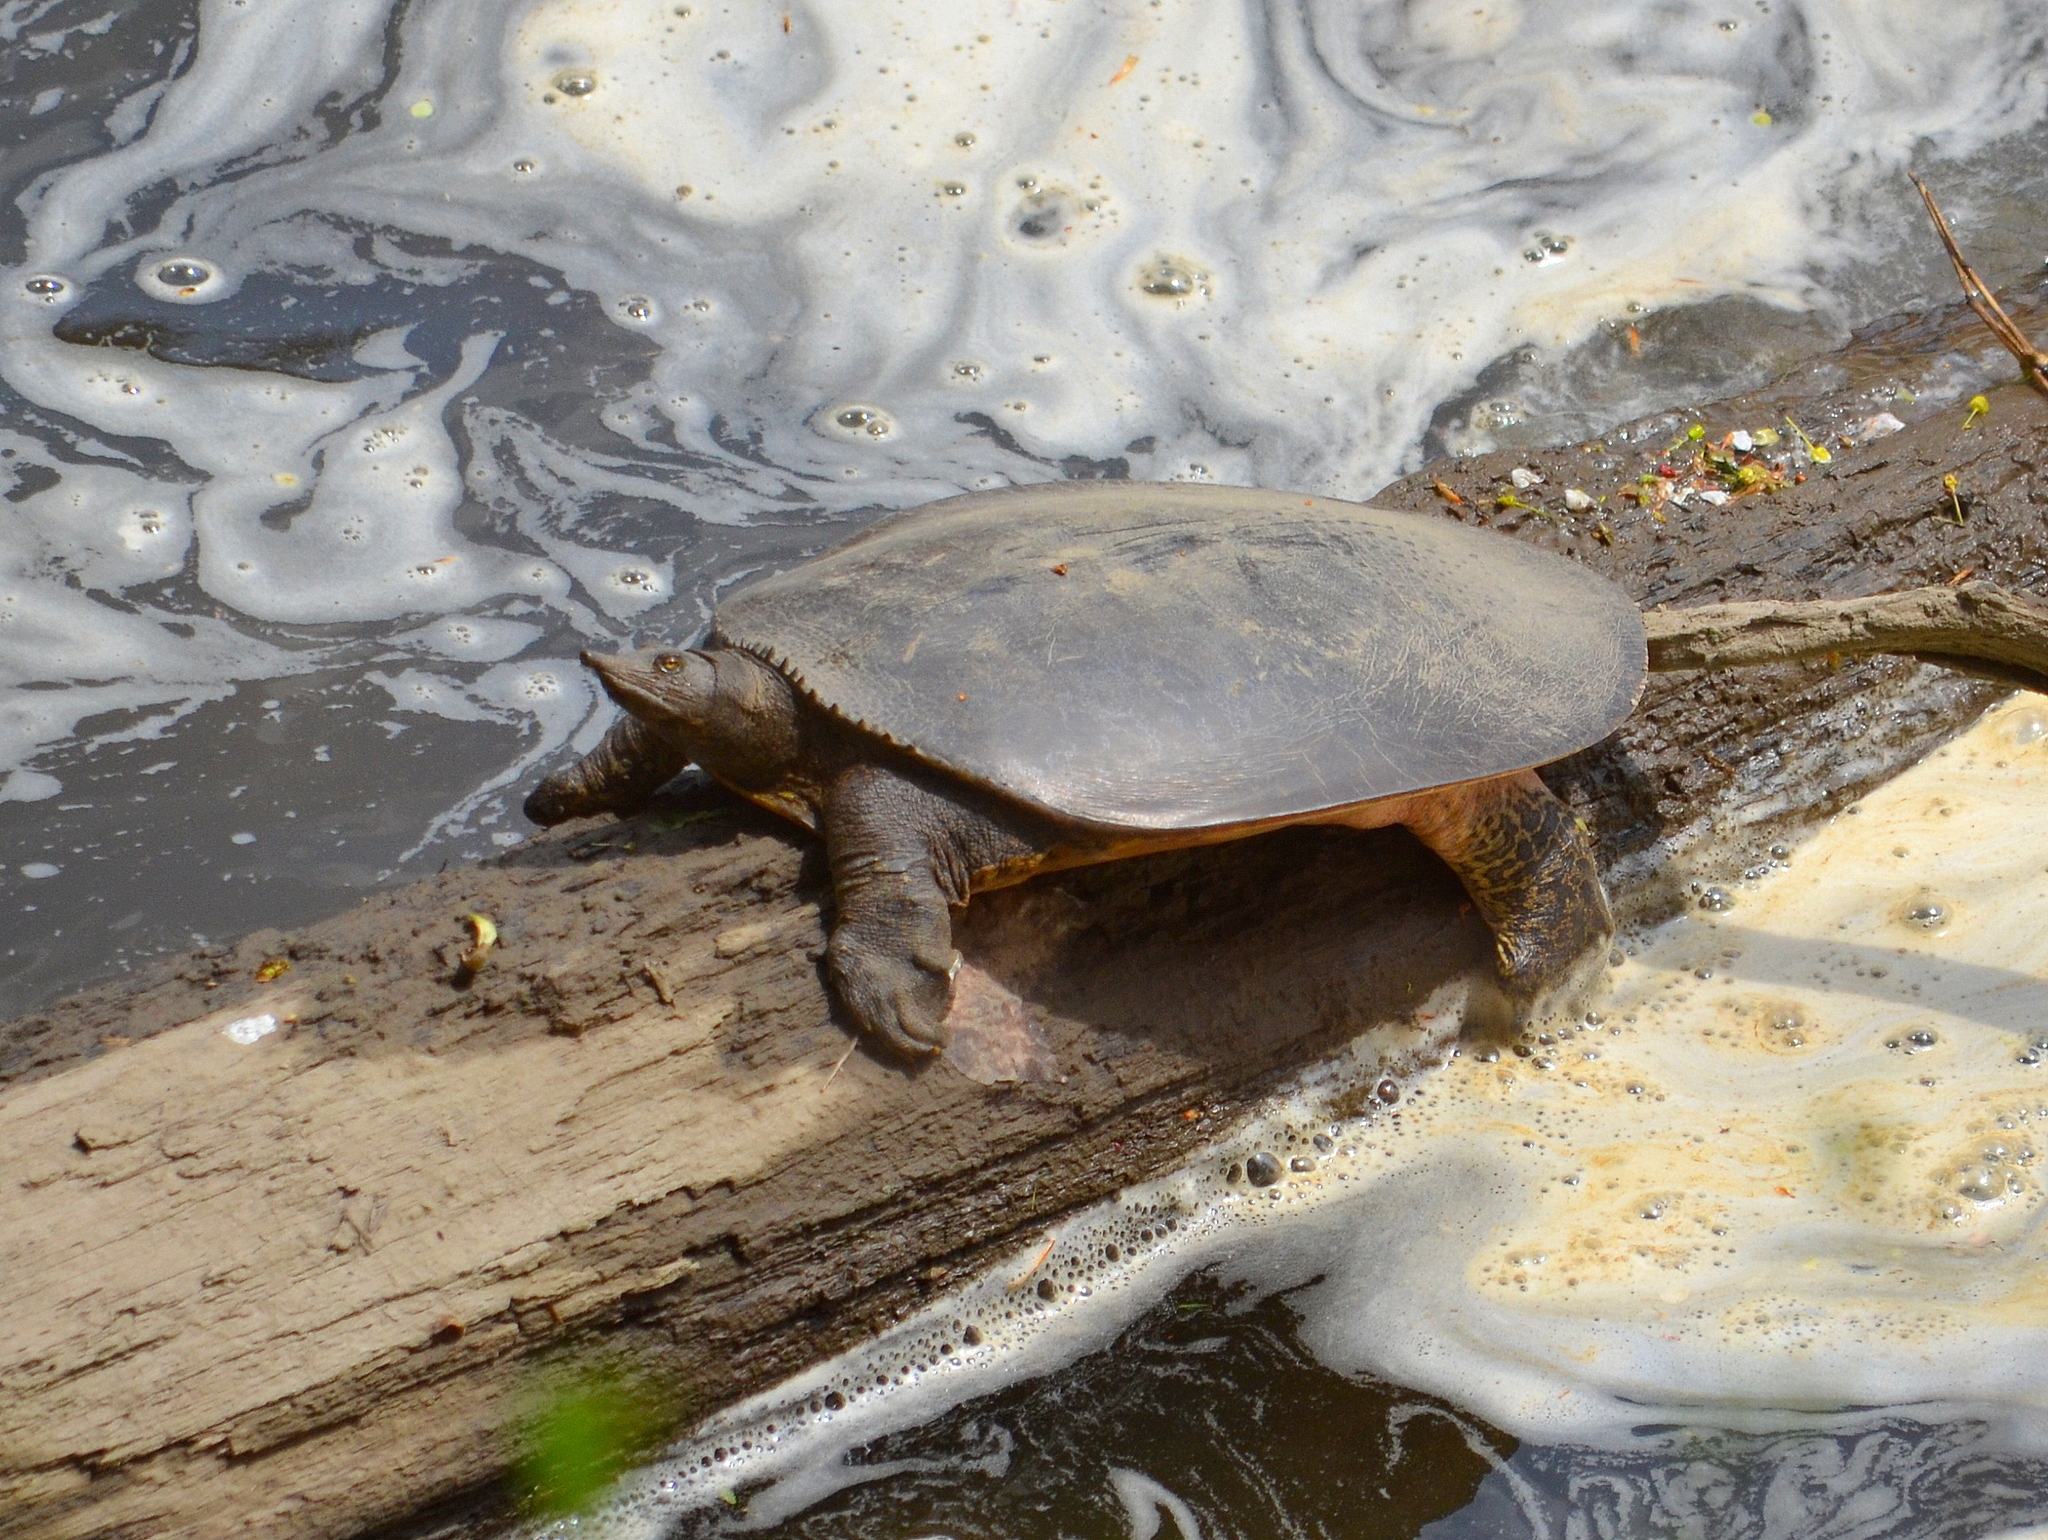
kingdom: Animalia
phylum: Chordata
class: Testudines
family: Trionychidae
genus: Apalone
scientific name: Apalone spinifera
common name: Spiny softshell turtle
